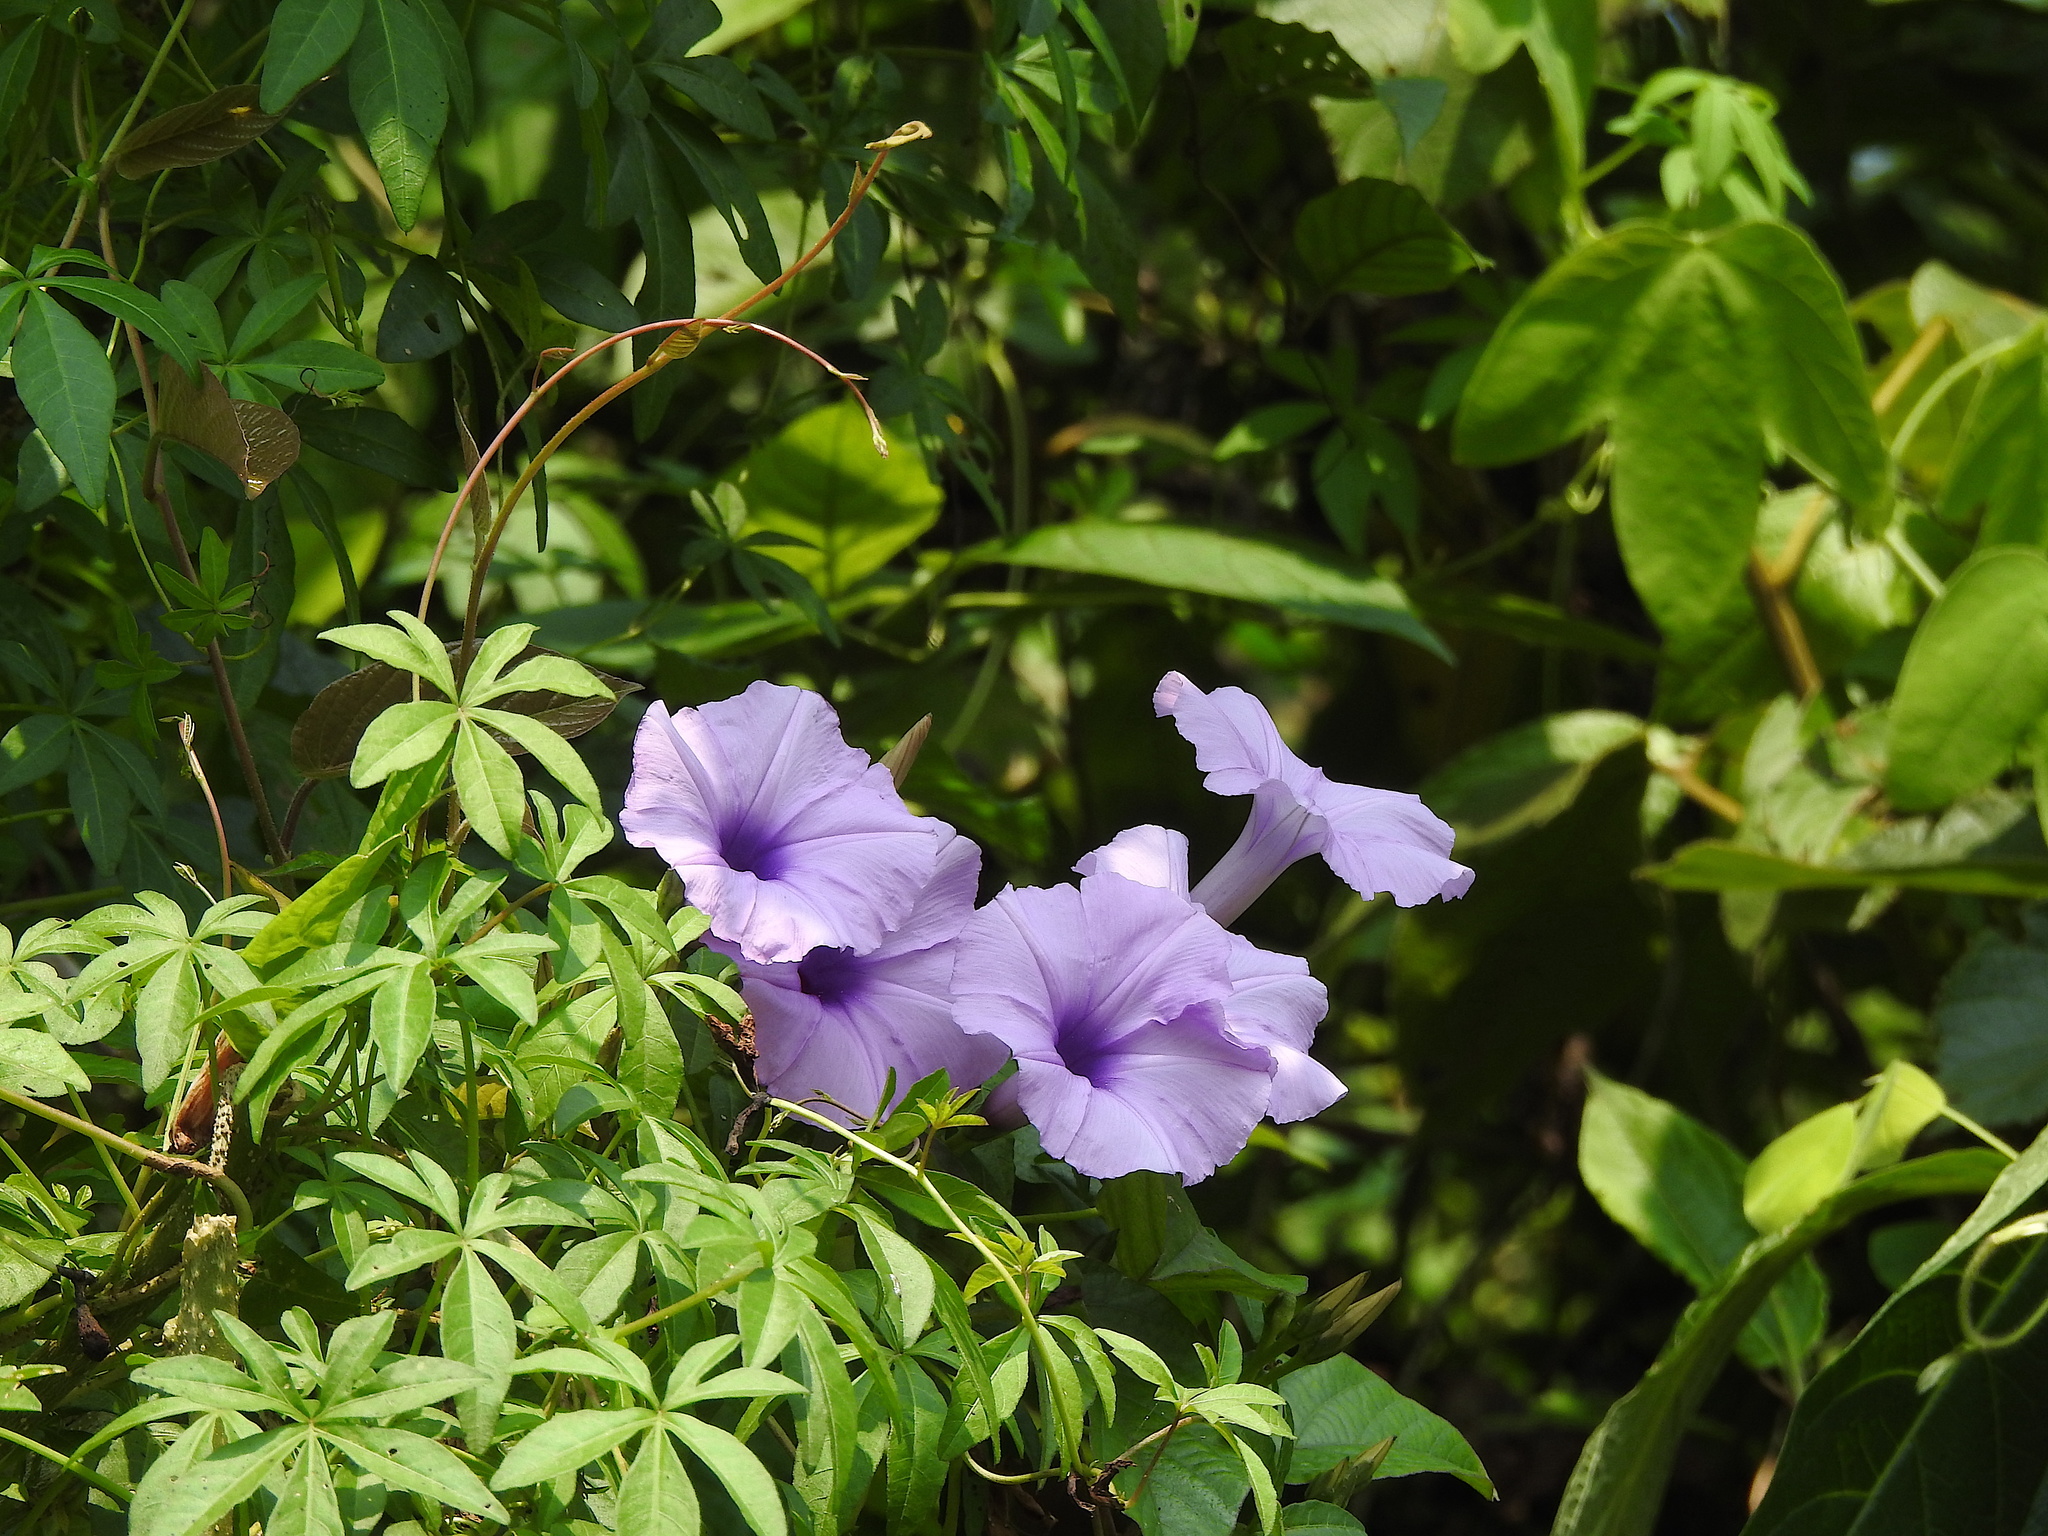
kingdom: Plantae
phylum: Tracheophyta
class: Magnoliopsida
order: Solanales
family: Convolvulaceae
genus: Ipomoea
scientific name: Ipomoea cairica
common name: Mile a minute vine
